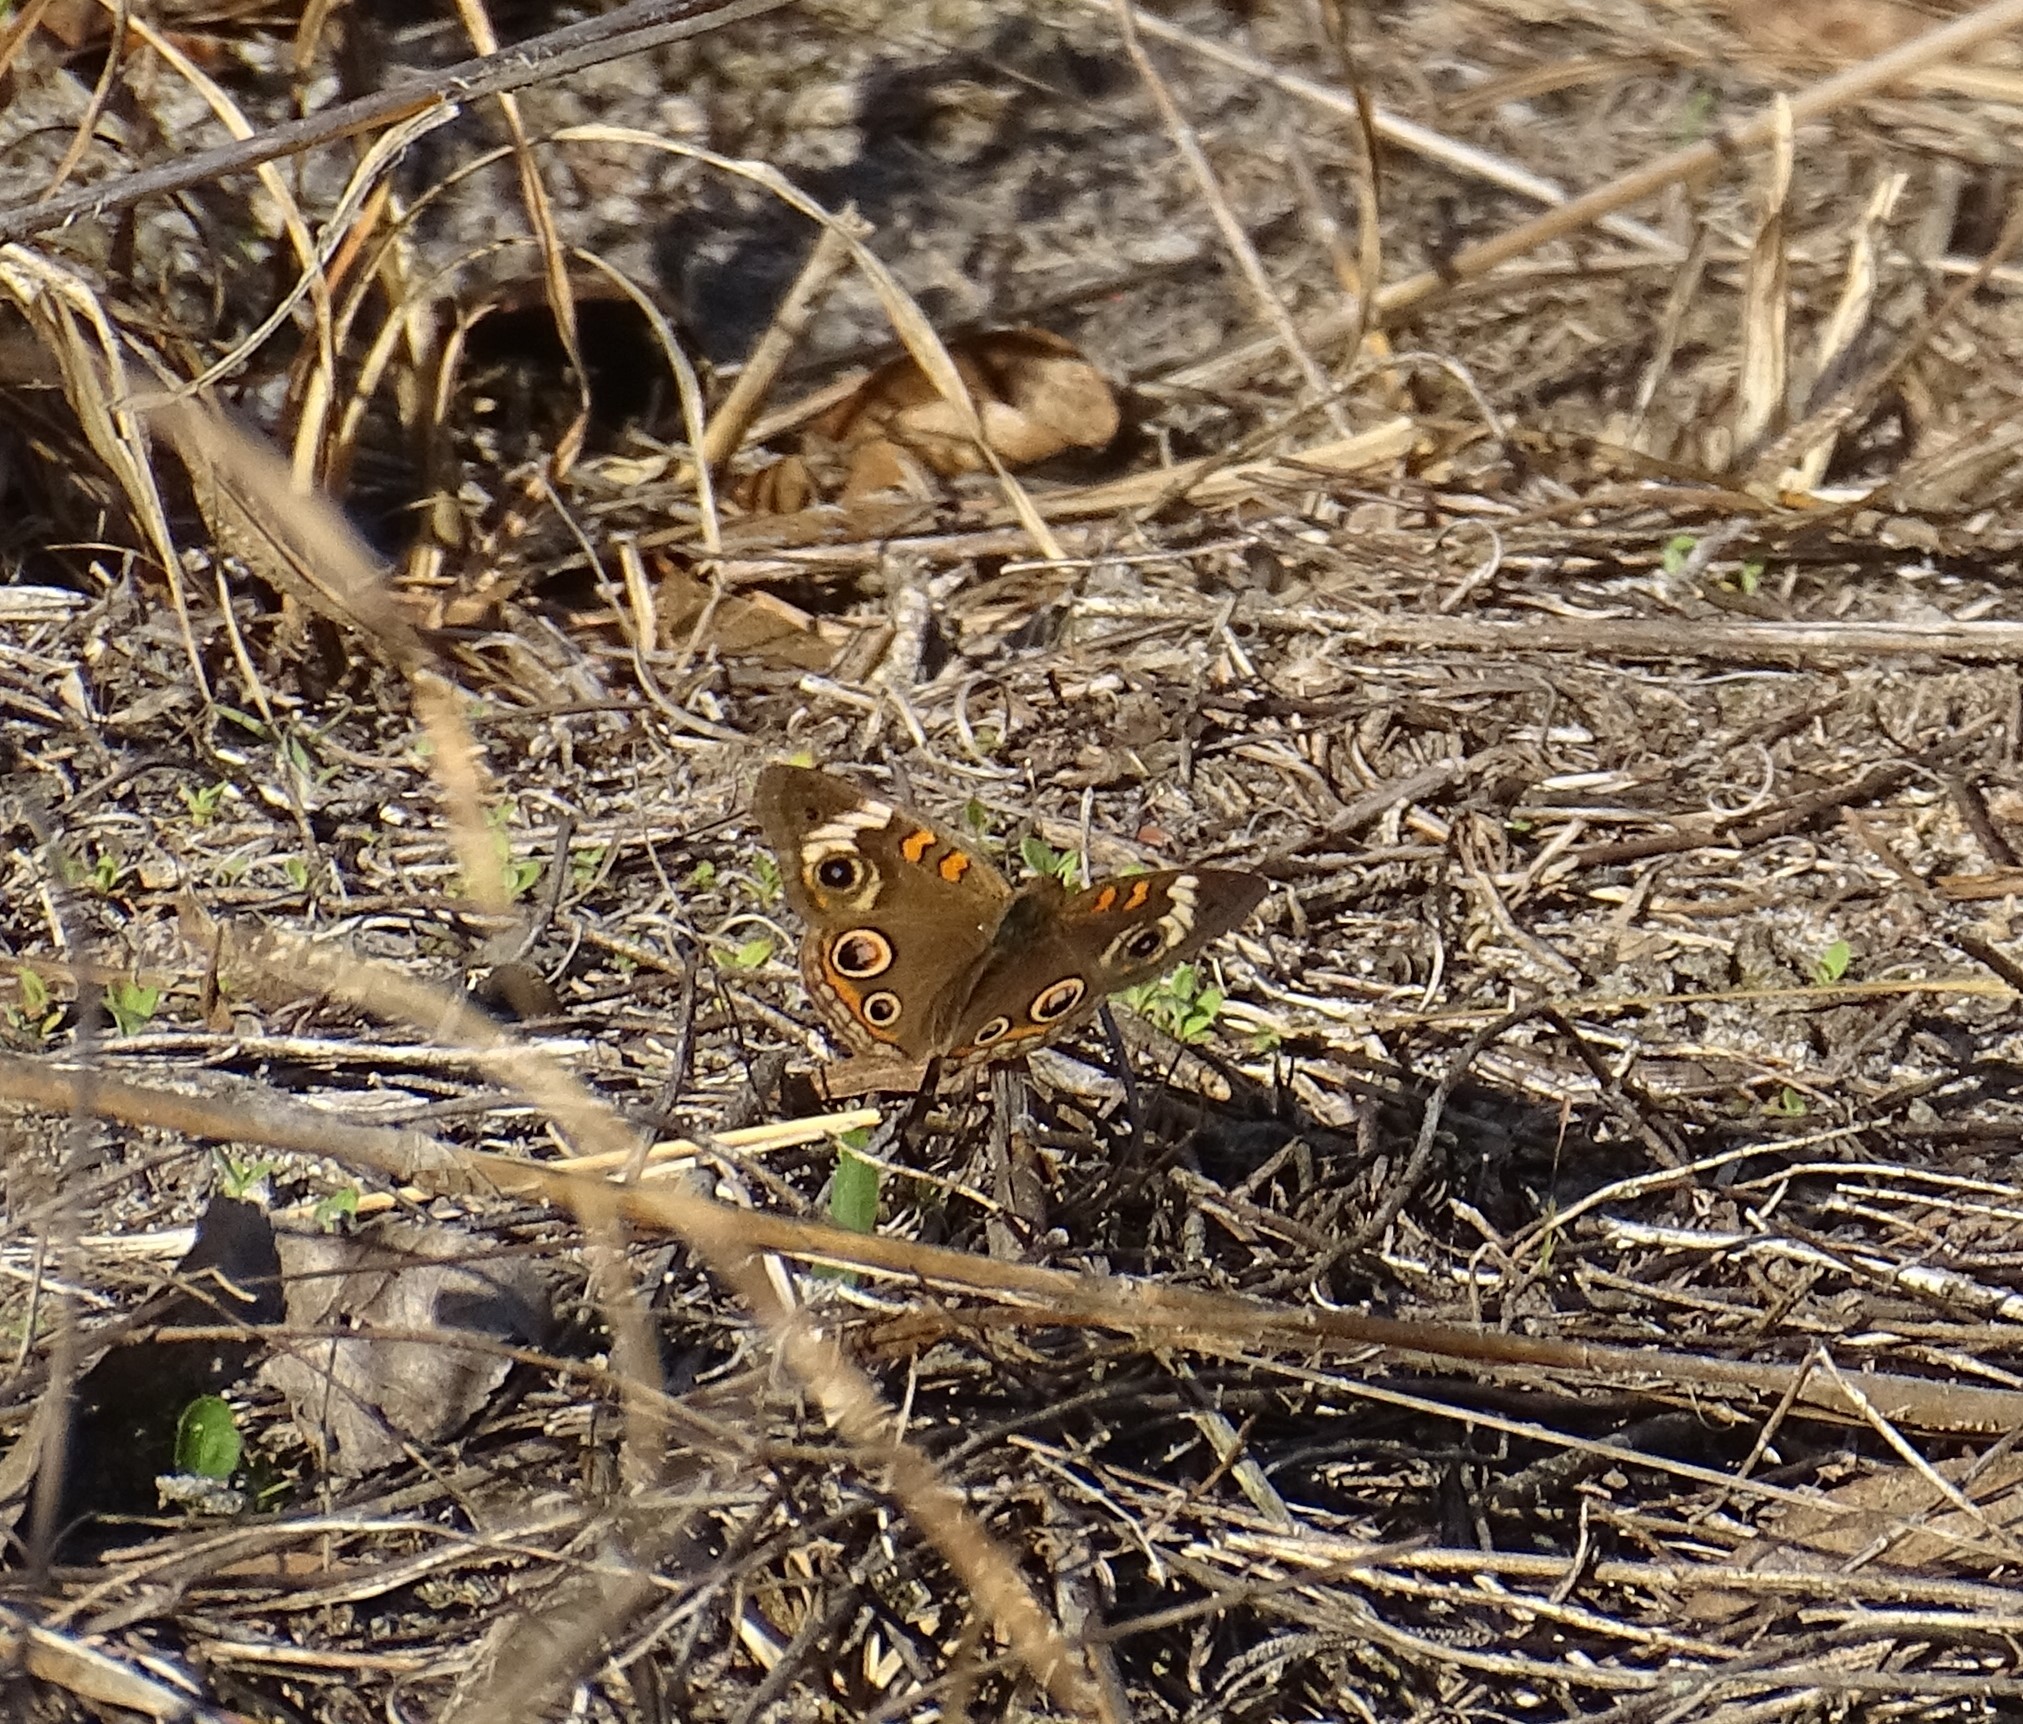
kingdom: Animalia
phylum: Arthropoda
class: Insecta
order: Lepidoptera
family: Nymphalidae
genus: Junonia
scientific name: Junonia coenia
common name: Common buckeye
